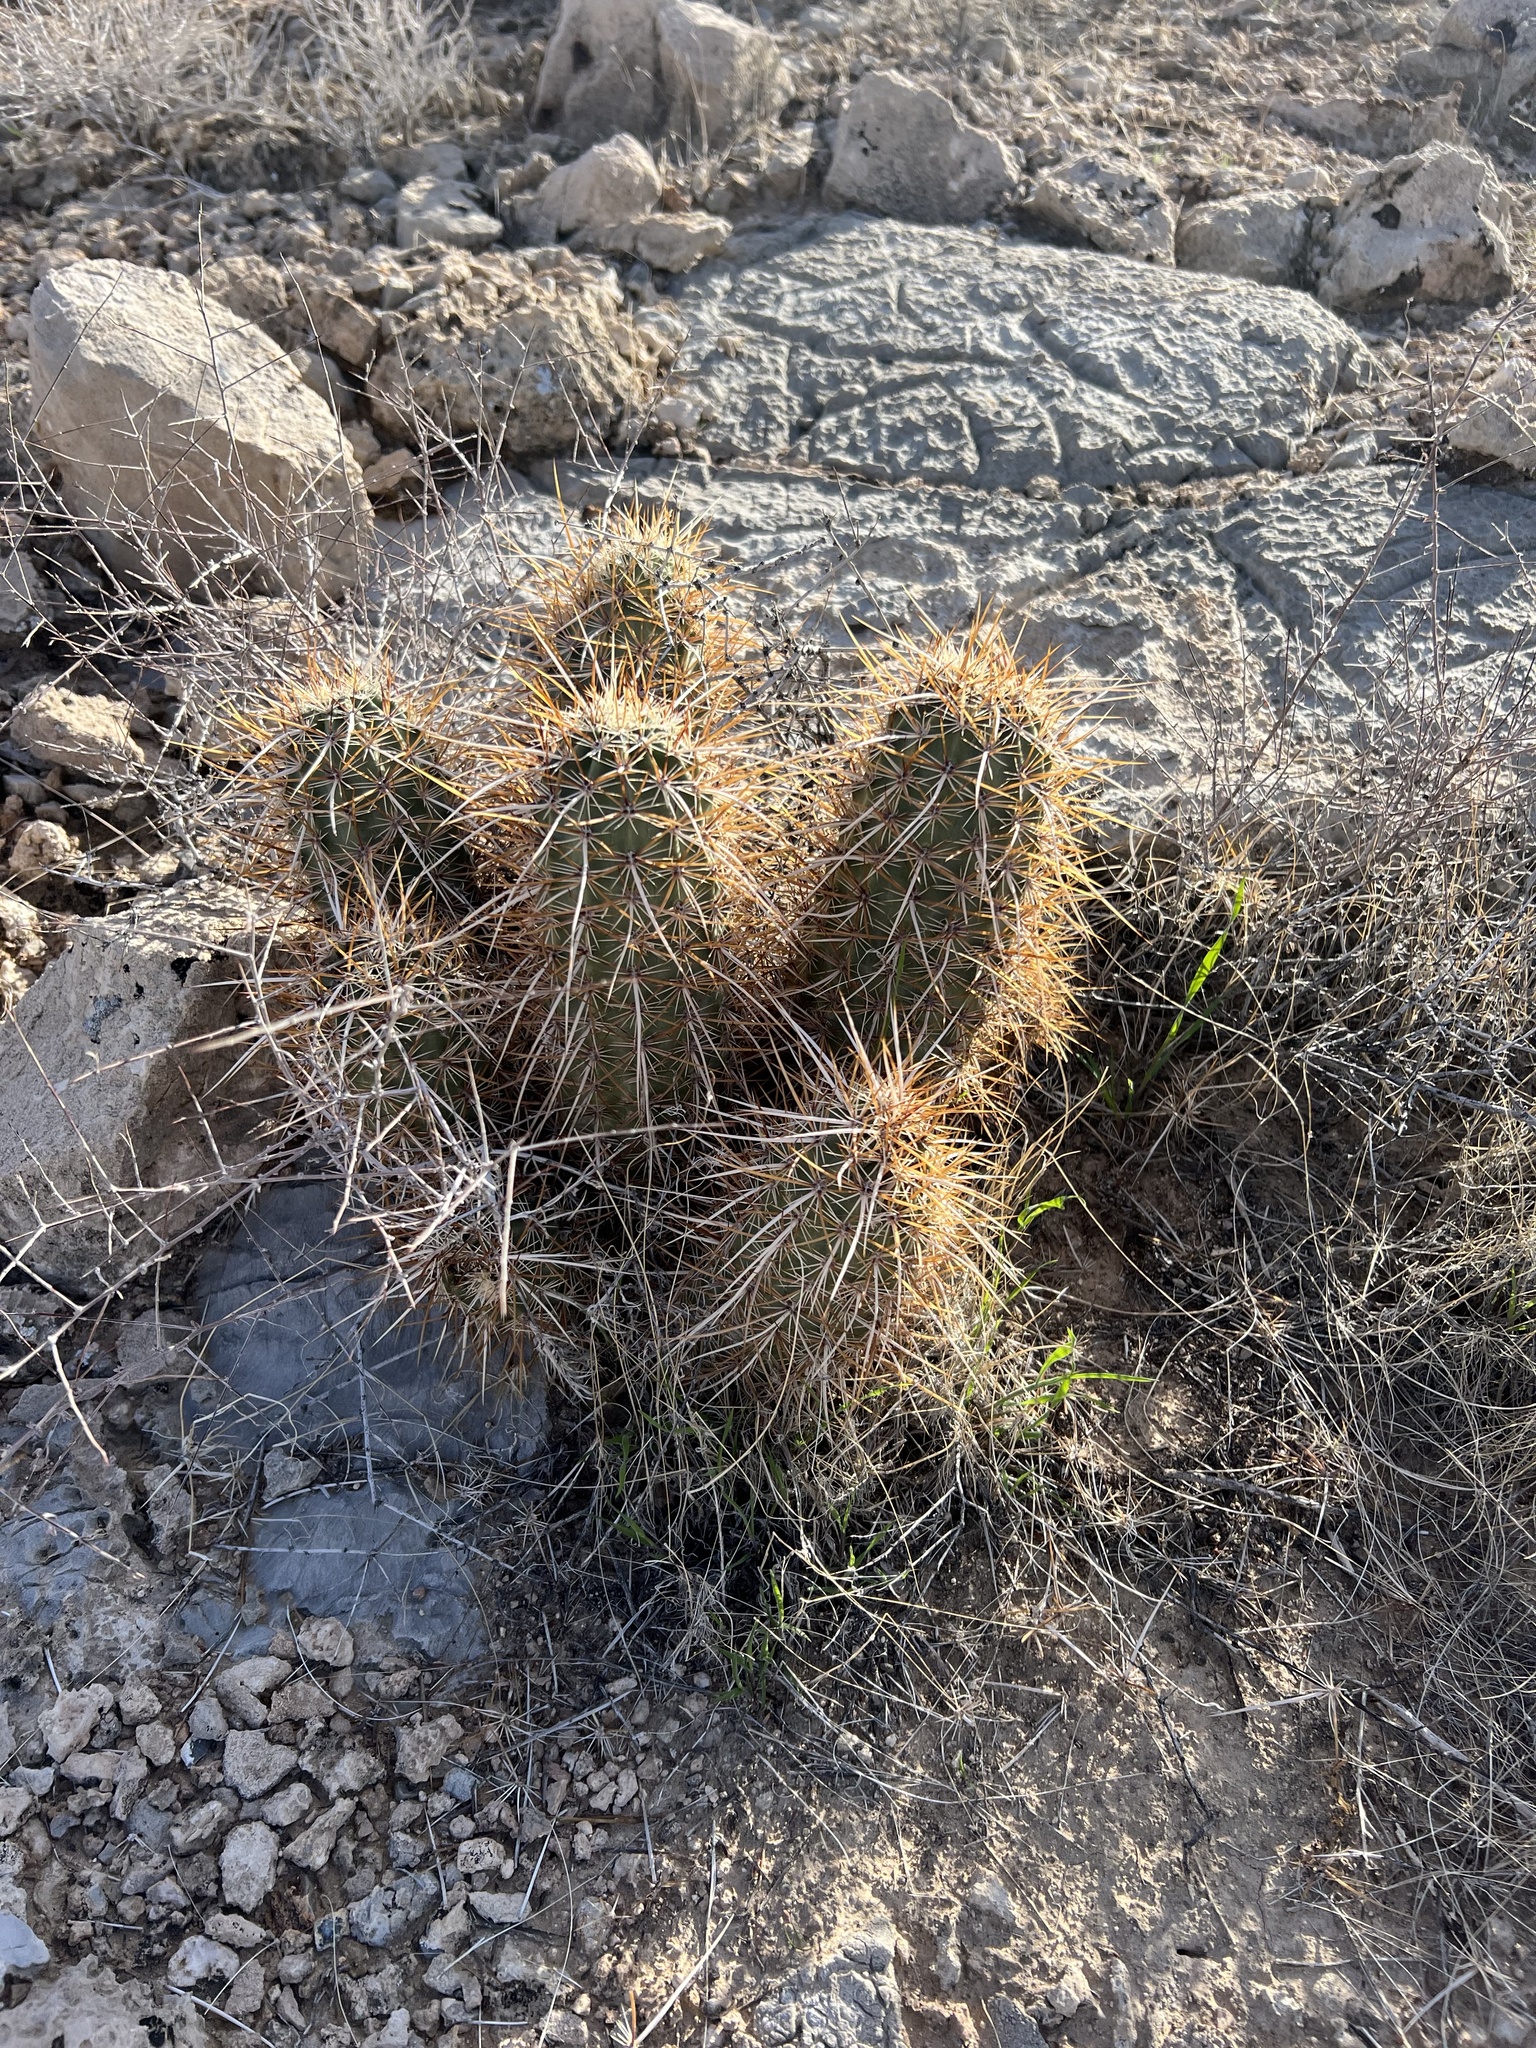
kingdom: Plantae
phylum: Tracheophyta
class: Magnoliopsida
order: Caryophyllales
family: Cactaceae
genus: Echinocereus
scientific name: Echinocereus engelmannii
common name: Engelmann's hedgehog cactus
